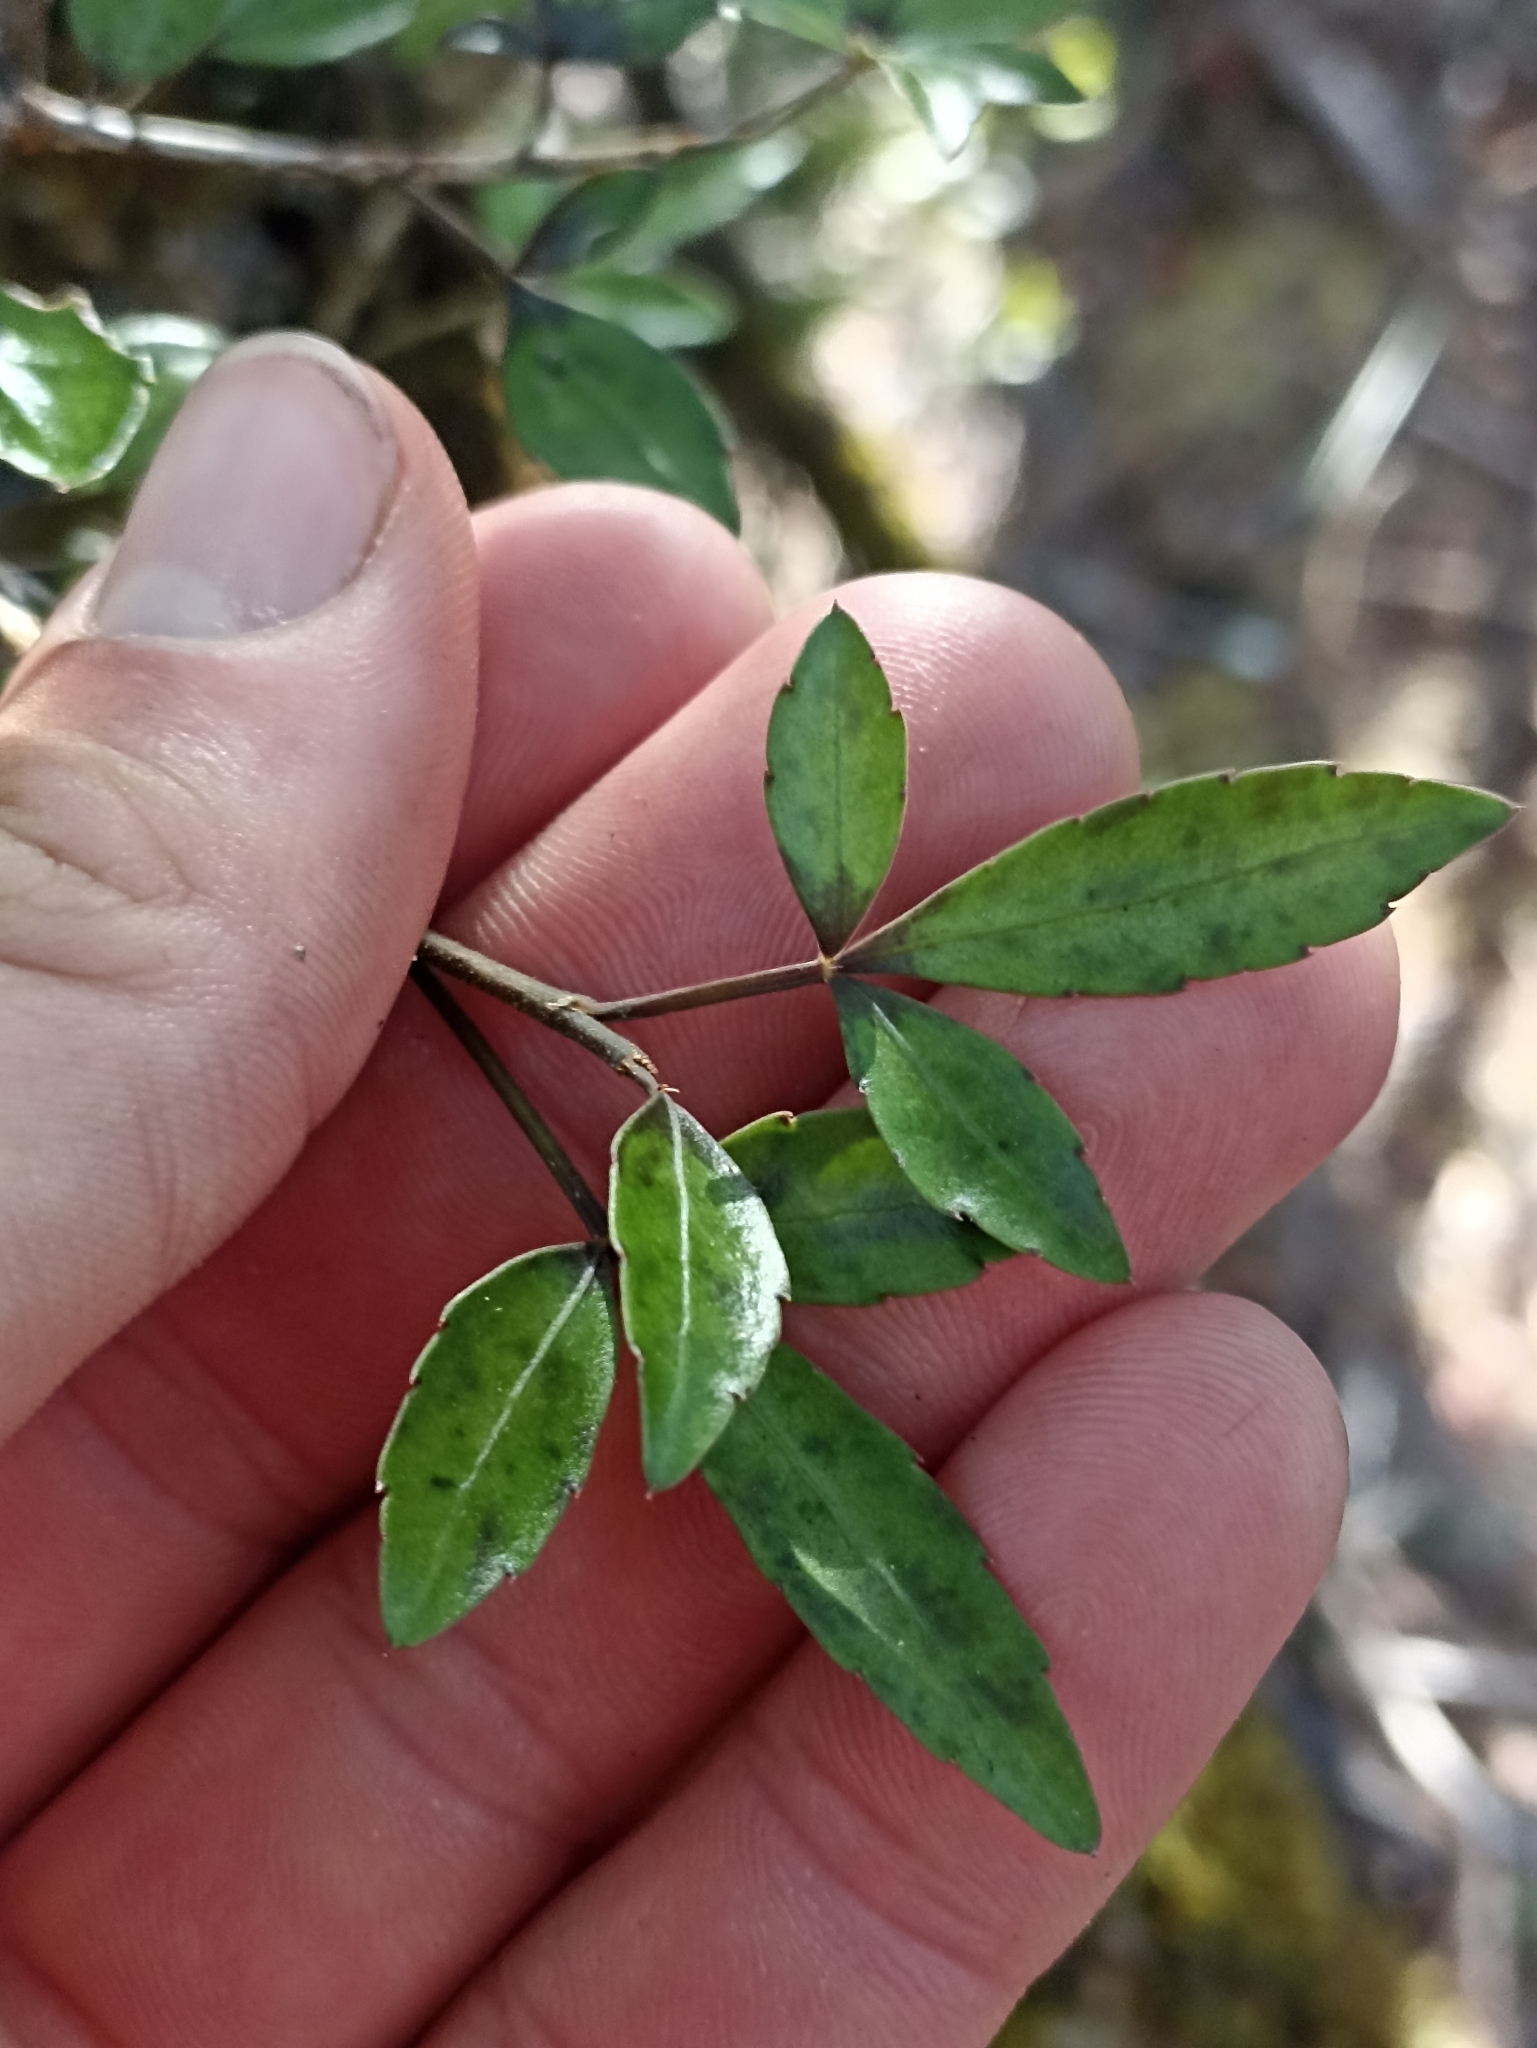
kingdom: Plantae
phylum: Tracheophyta
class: Magnoliopsida
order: Apiales
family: Araliaceae
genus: Raukaua
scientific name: Raukaua simplex
